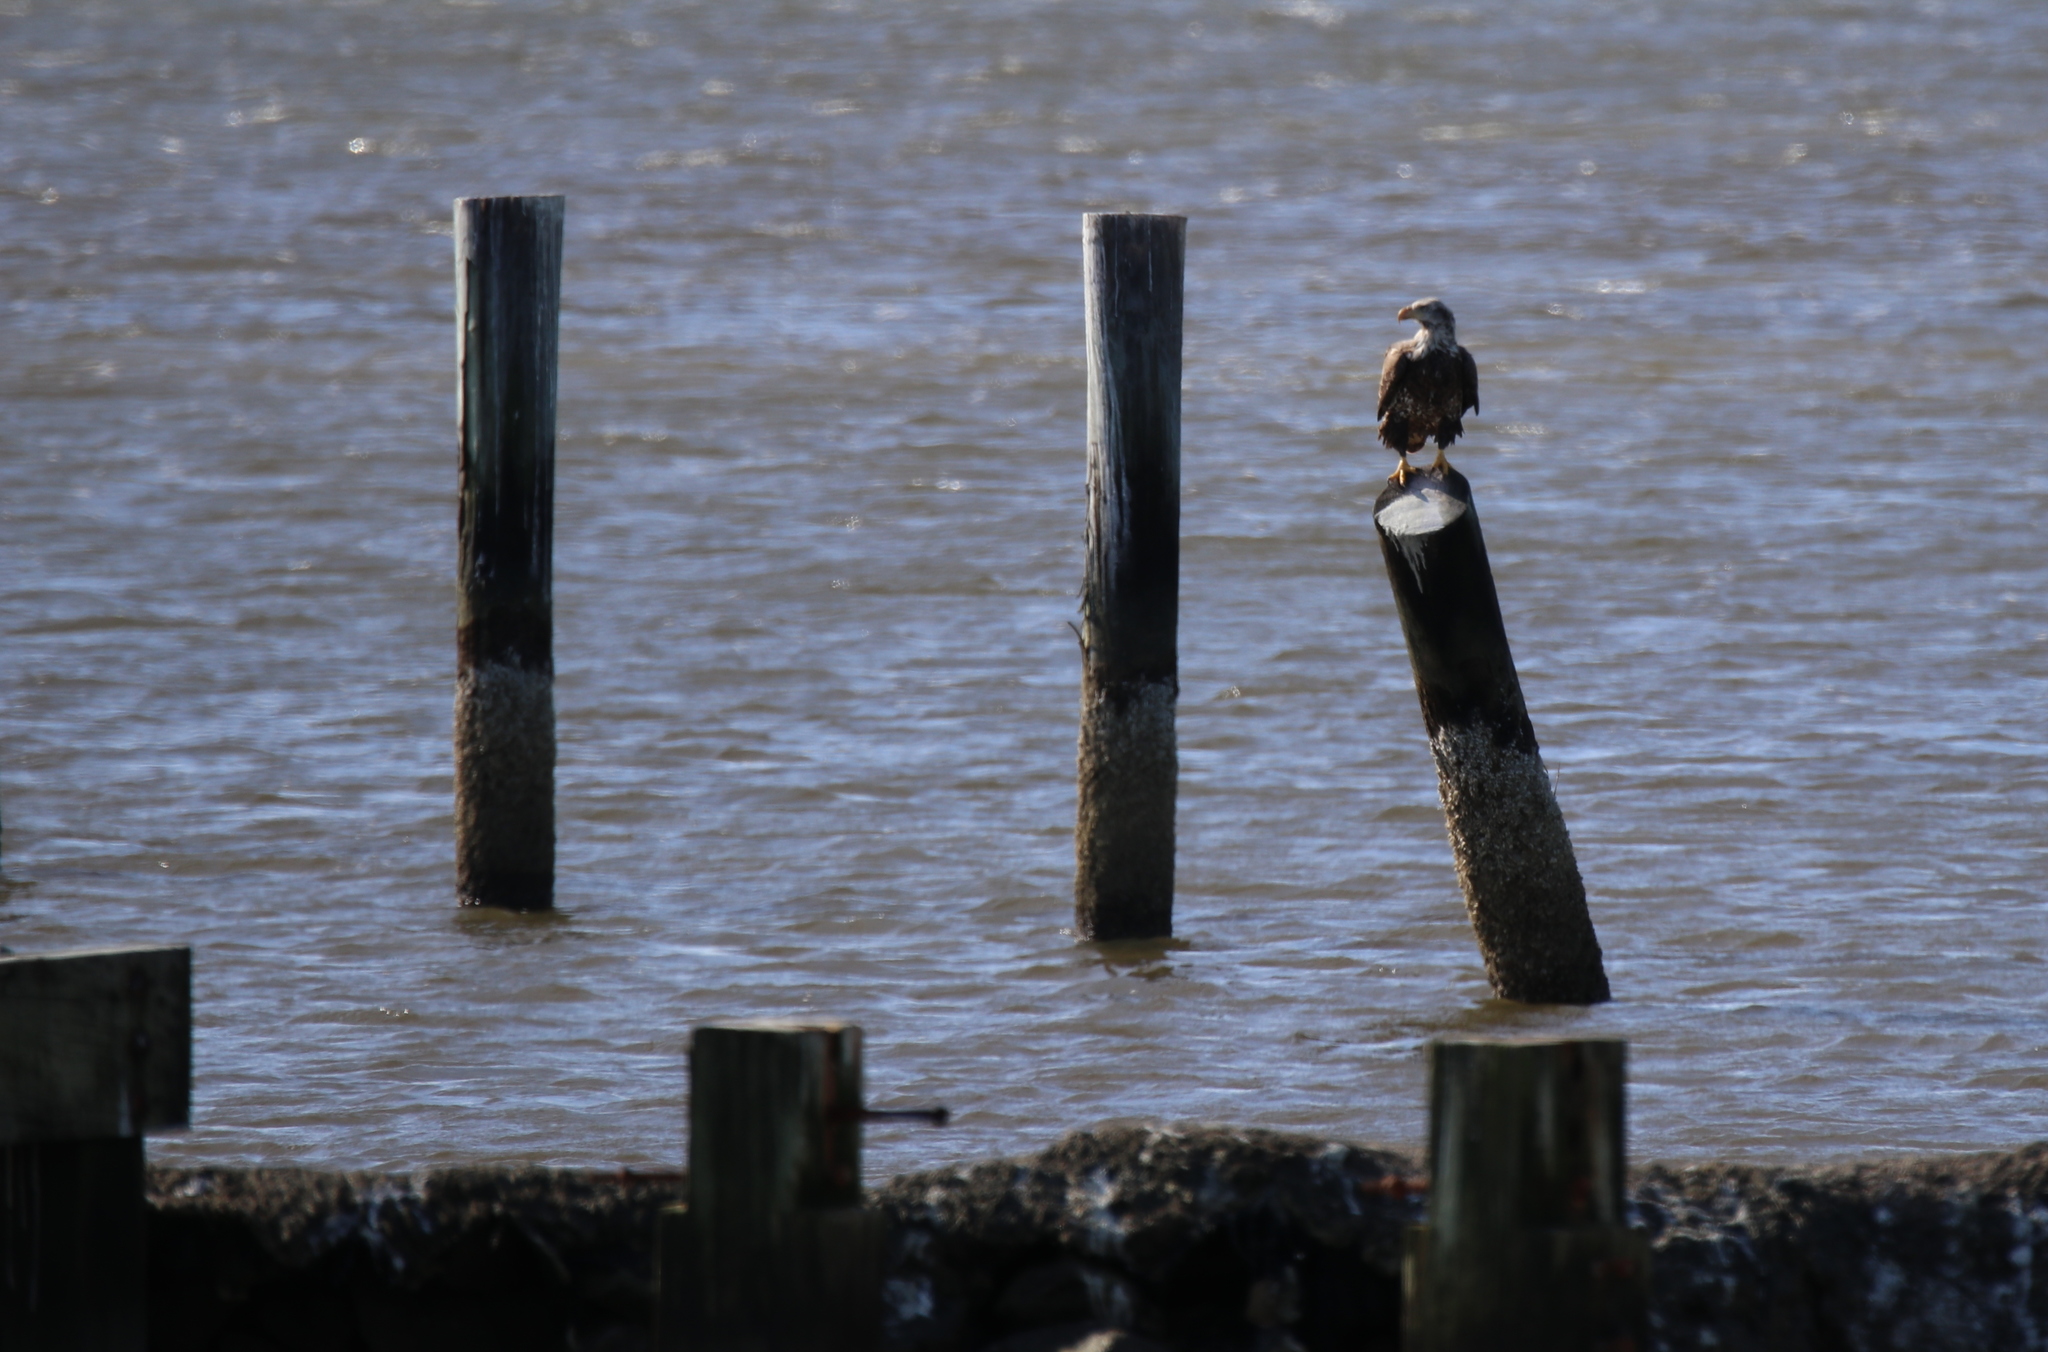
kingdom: Animalia
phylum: Chordata
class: Aves
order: Accipitriformes
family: Accipitridae
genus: Haliaeetus
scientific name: Haliaeetus leucocephalus
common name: Bald eagle
